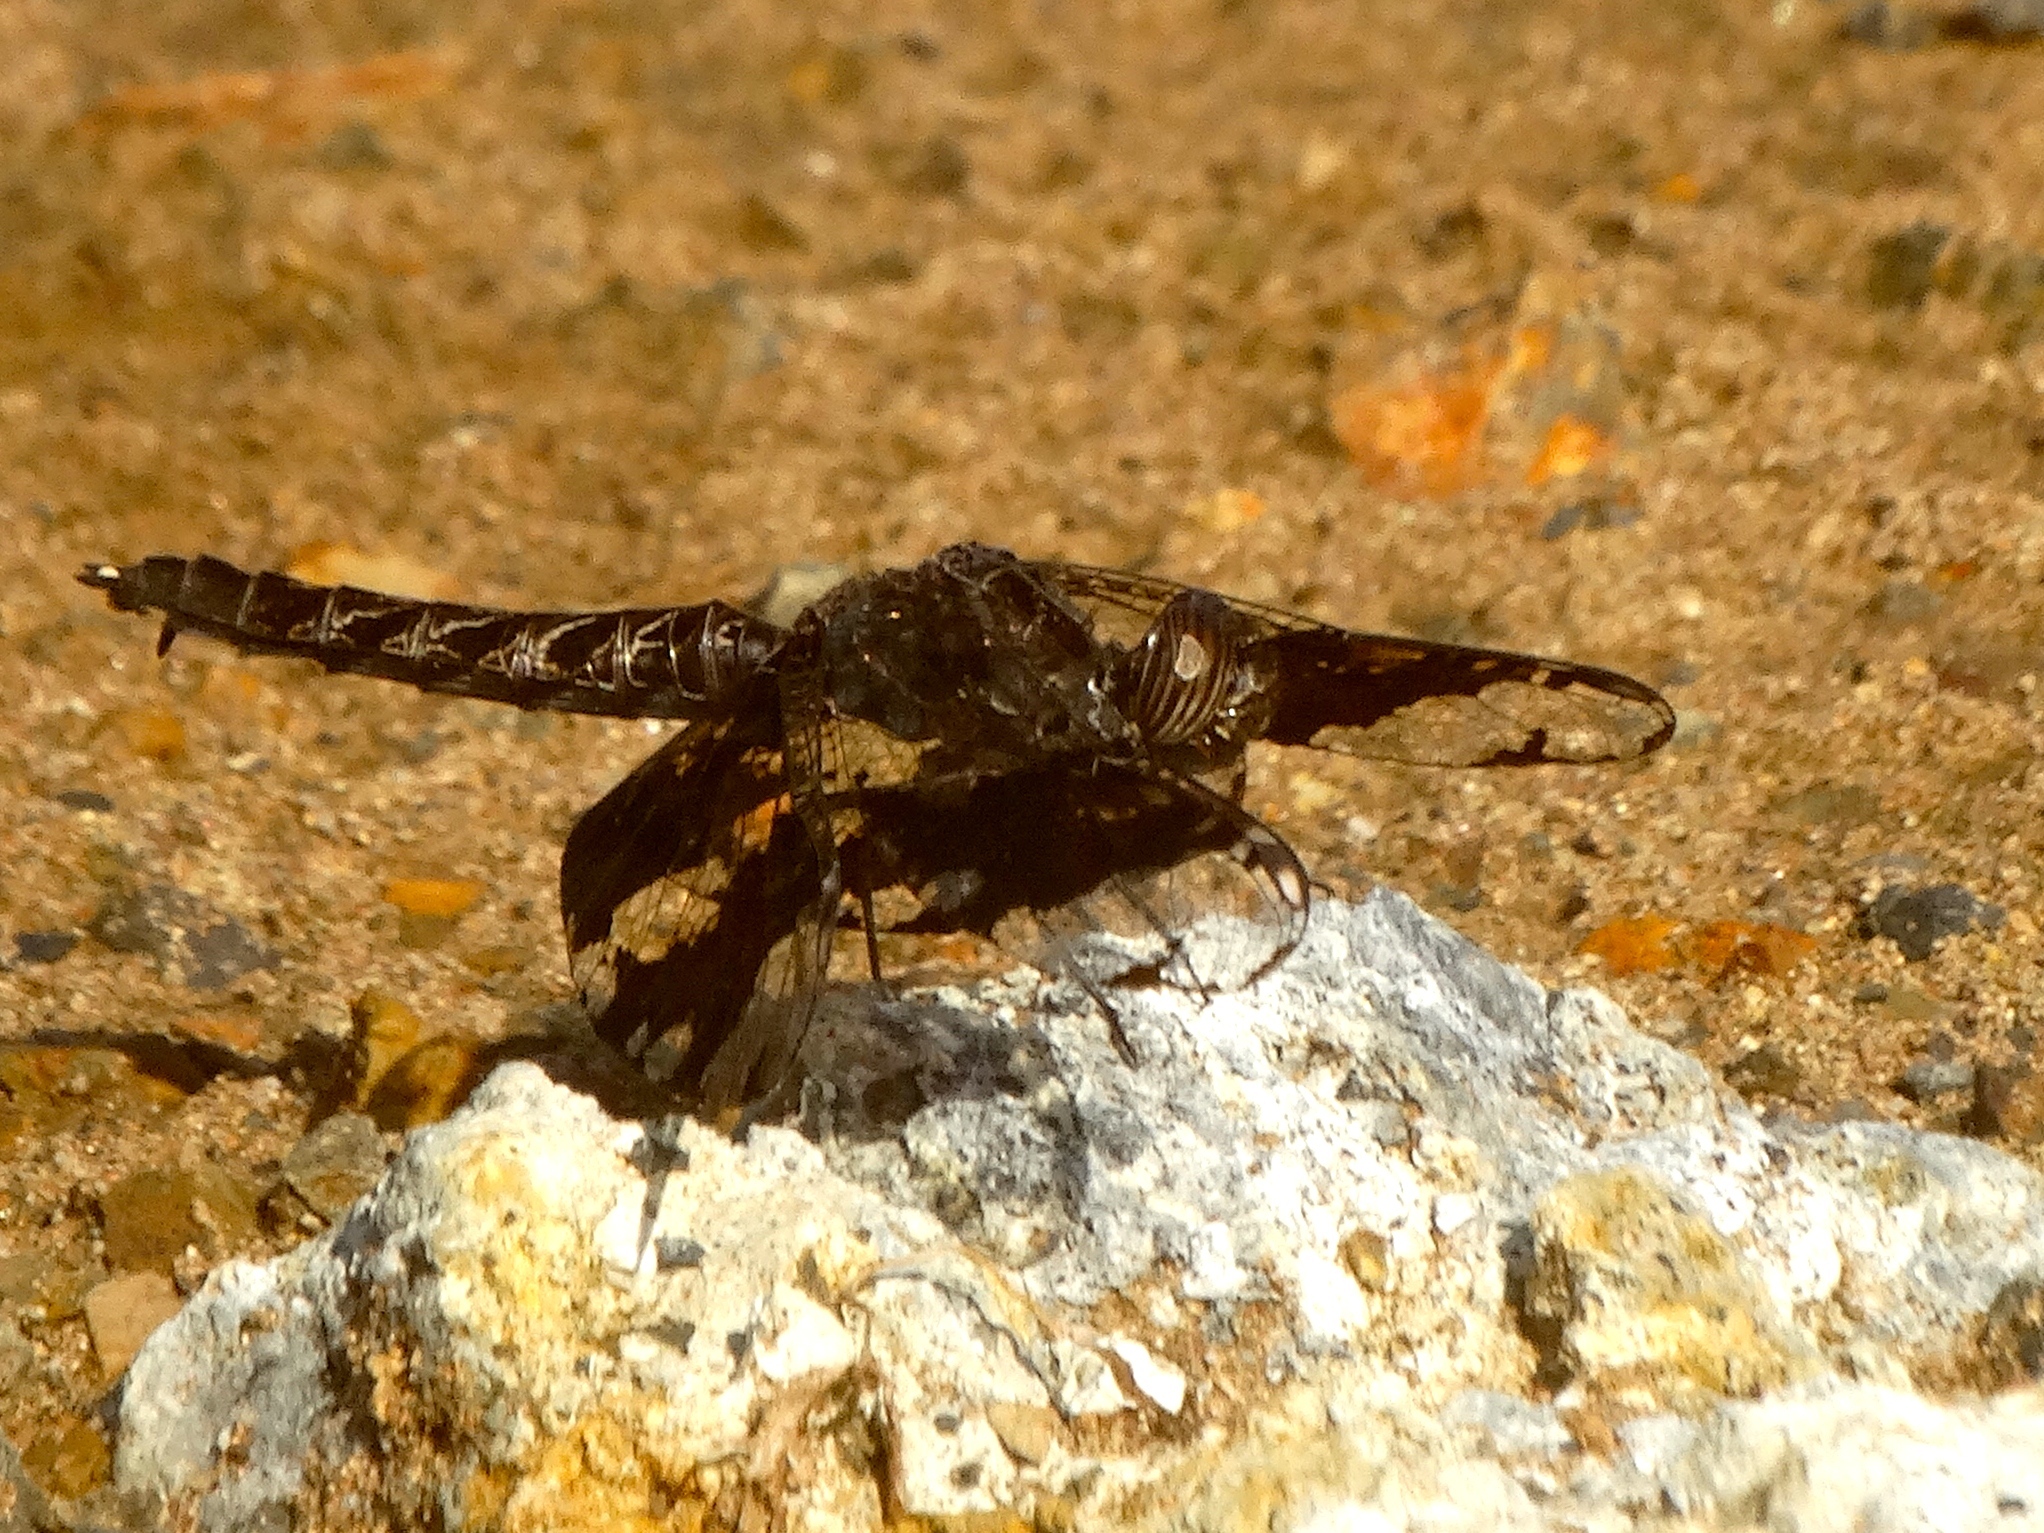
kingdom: Animalia
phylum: Arthropoda
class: Insecta
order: Odonata
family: Libellulidae
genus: Pseudoleon
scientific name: Pseudoleon superbus
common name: Filigree skimmer
